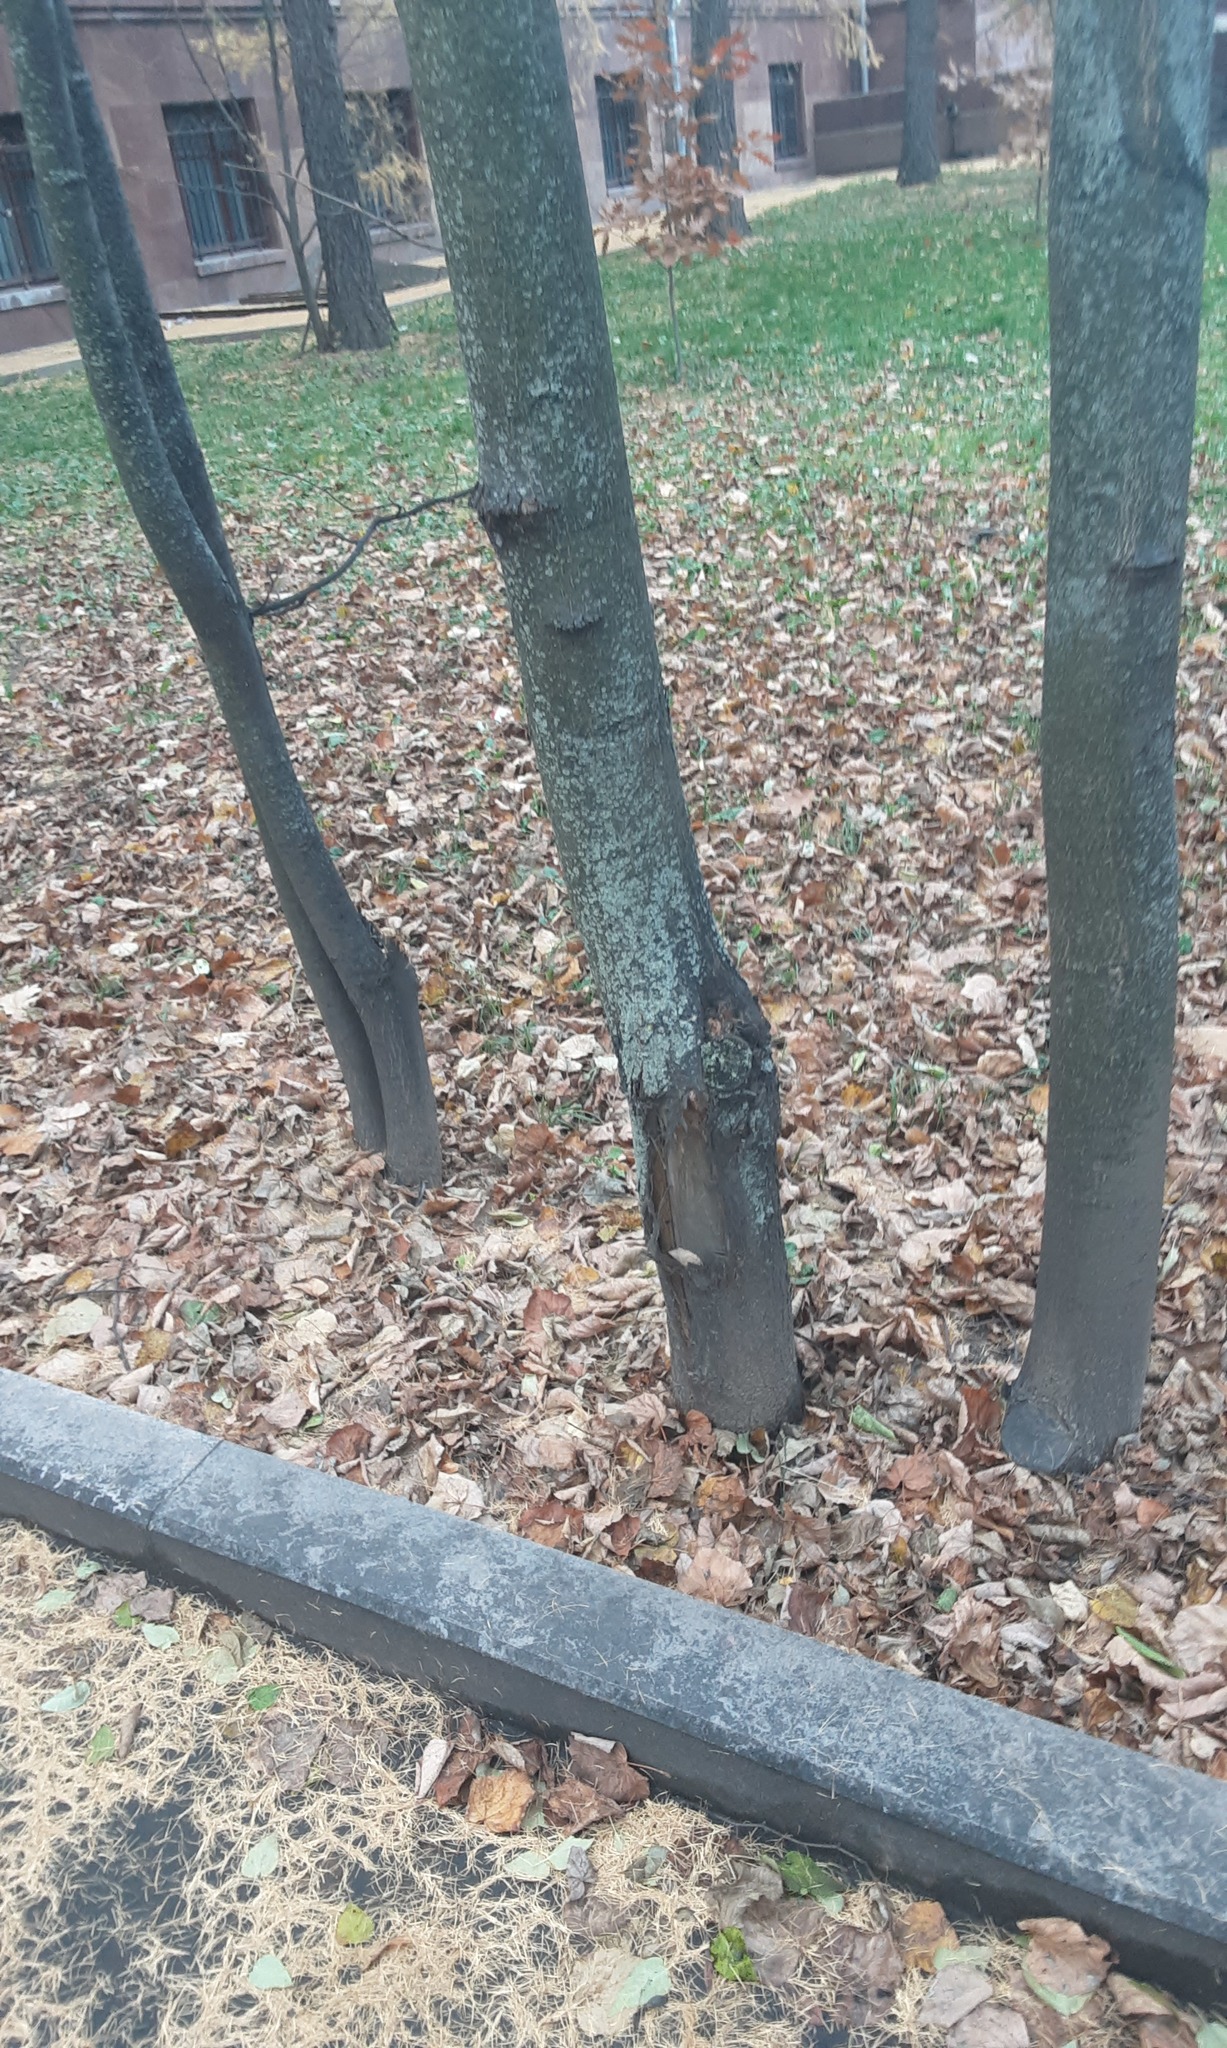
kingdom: Fungi
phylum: Basidiomycota
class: Agaricomycetes
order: Atheliales
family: Atheliaceae
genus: Athelia
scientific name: Athelia arachnoidea
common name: Candelabra duster
